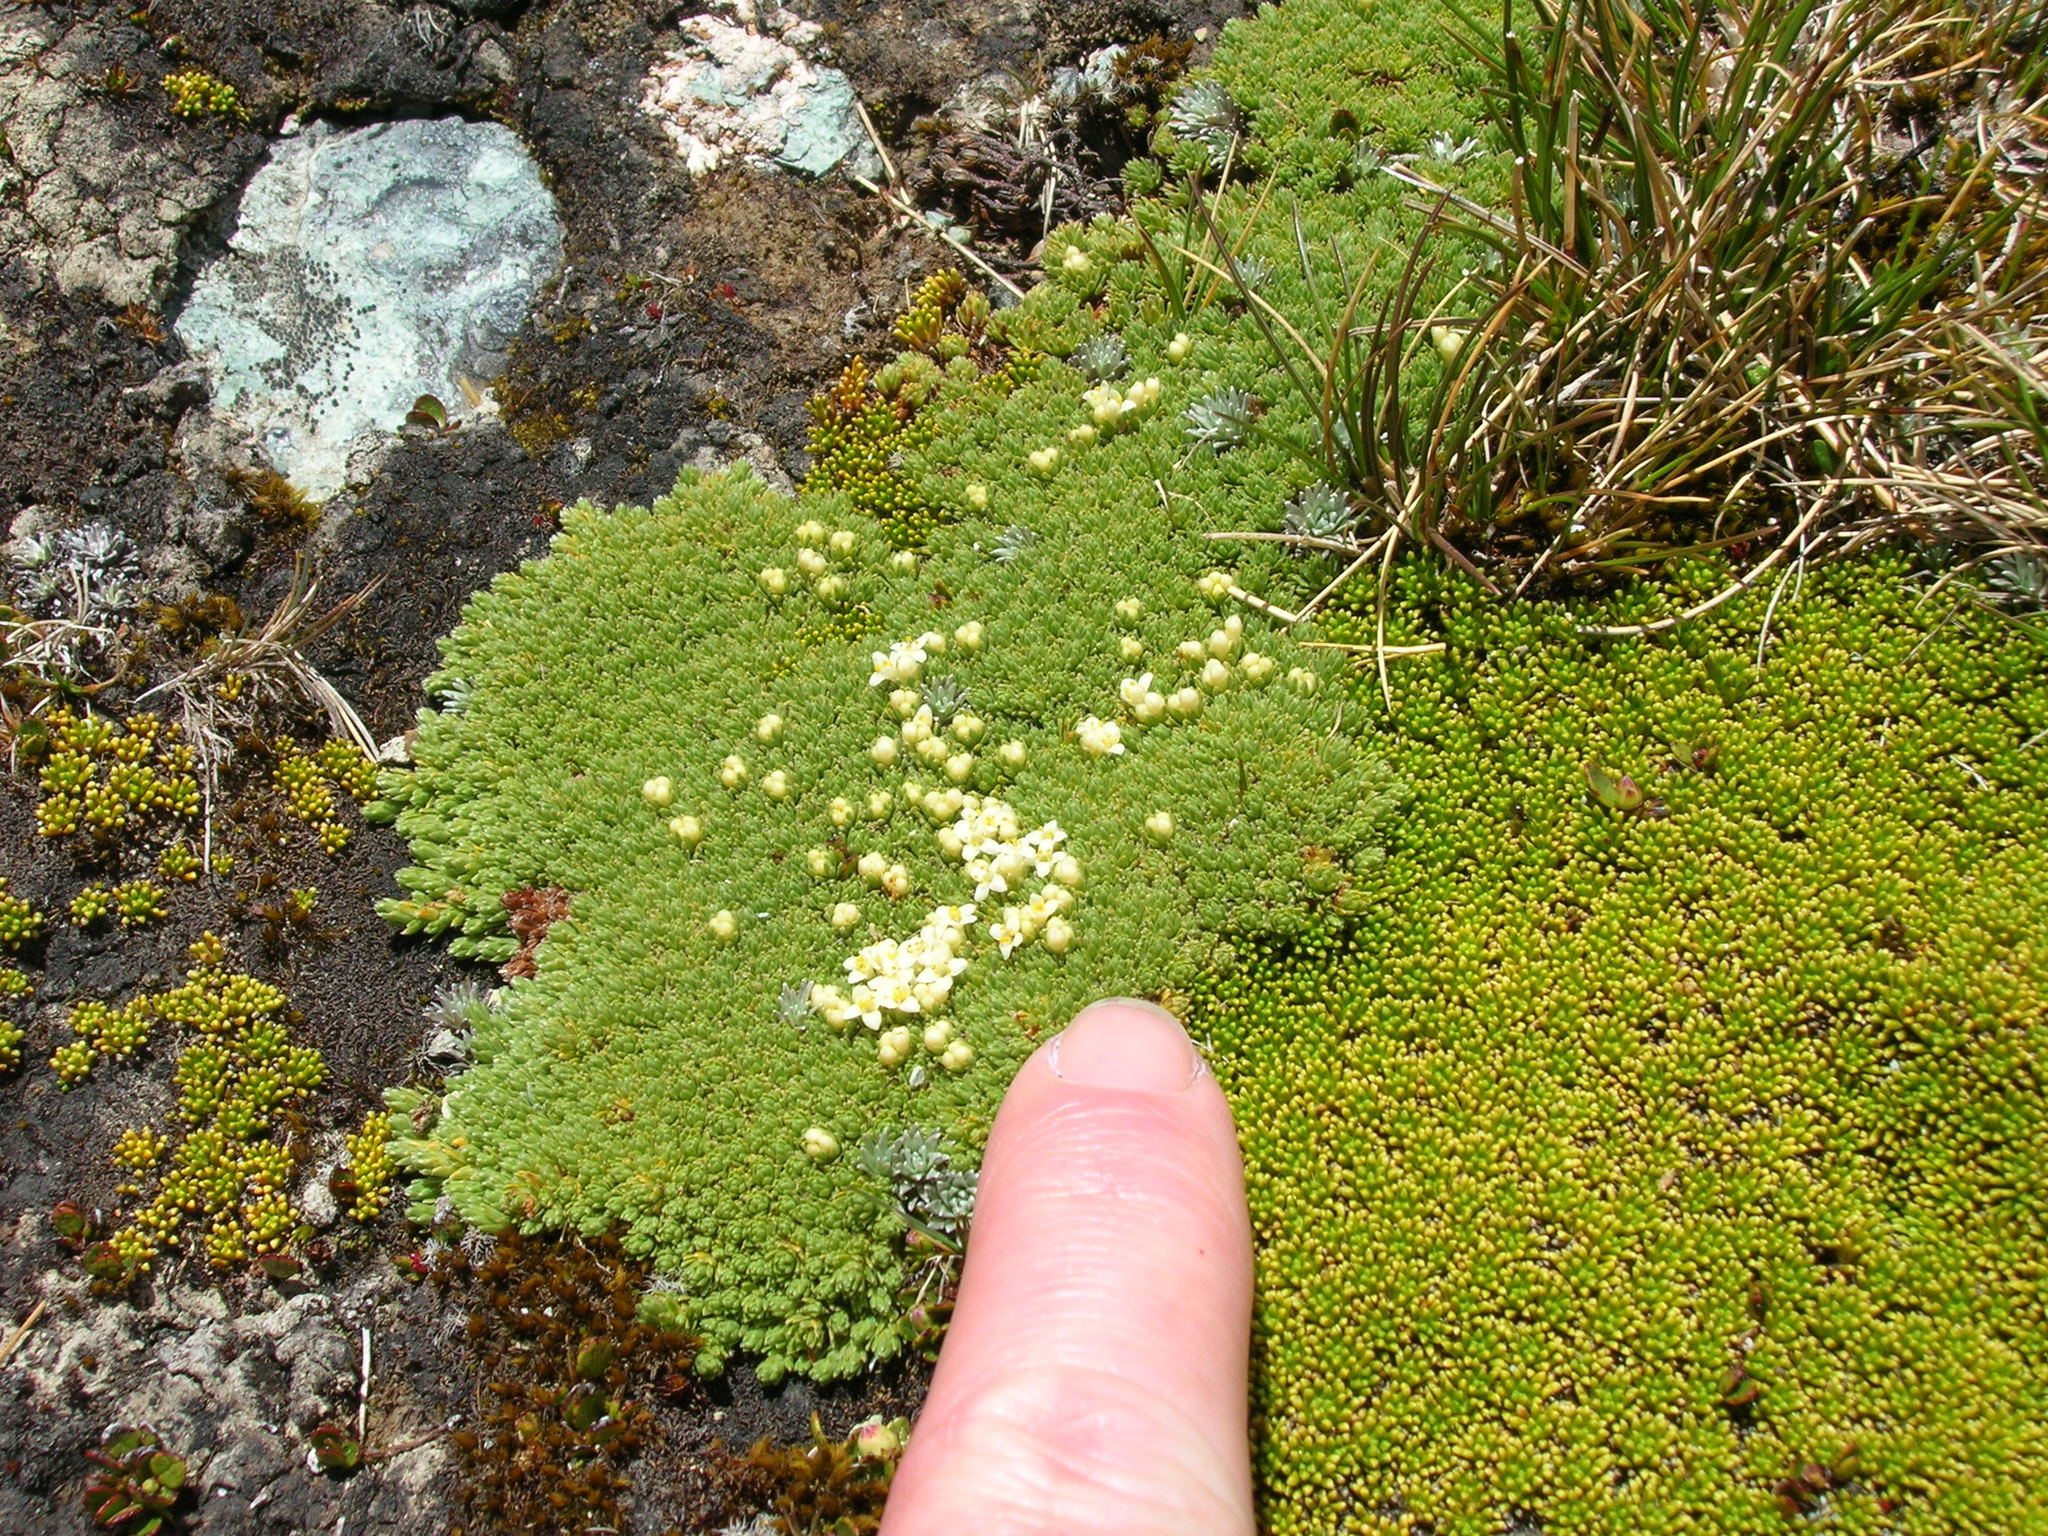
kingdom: Plantae
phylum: Tracheophyta
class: Magnoliopsida
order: Malvales
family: Thymelaeaceae
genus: Kelleria
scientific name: Kelleria croizatii
